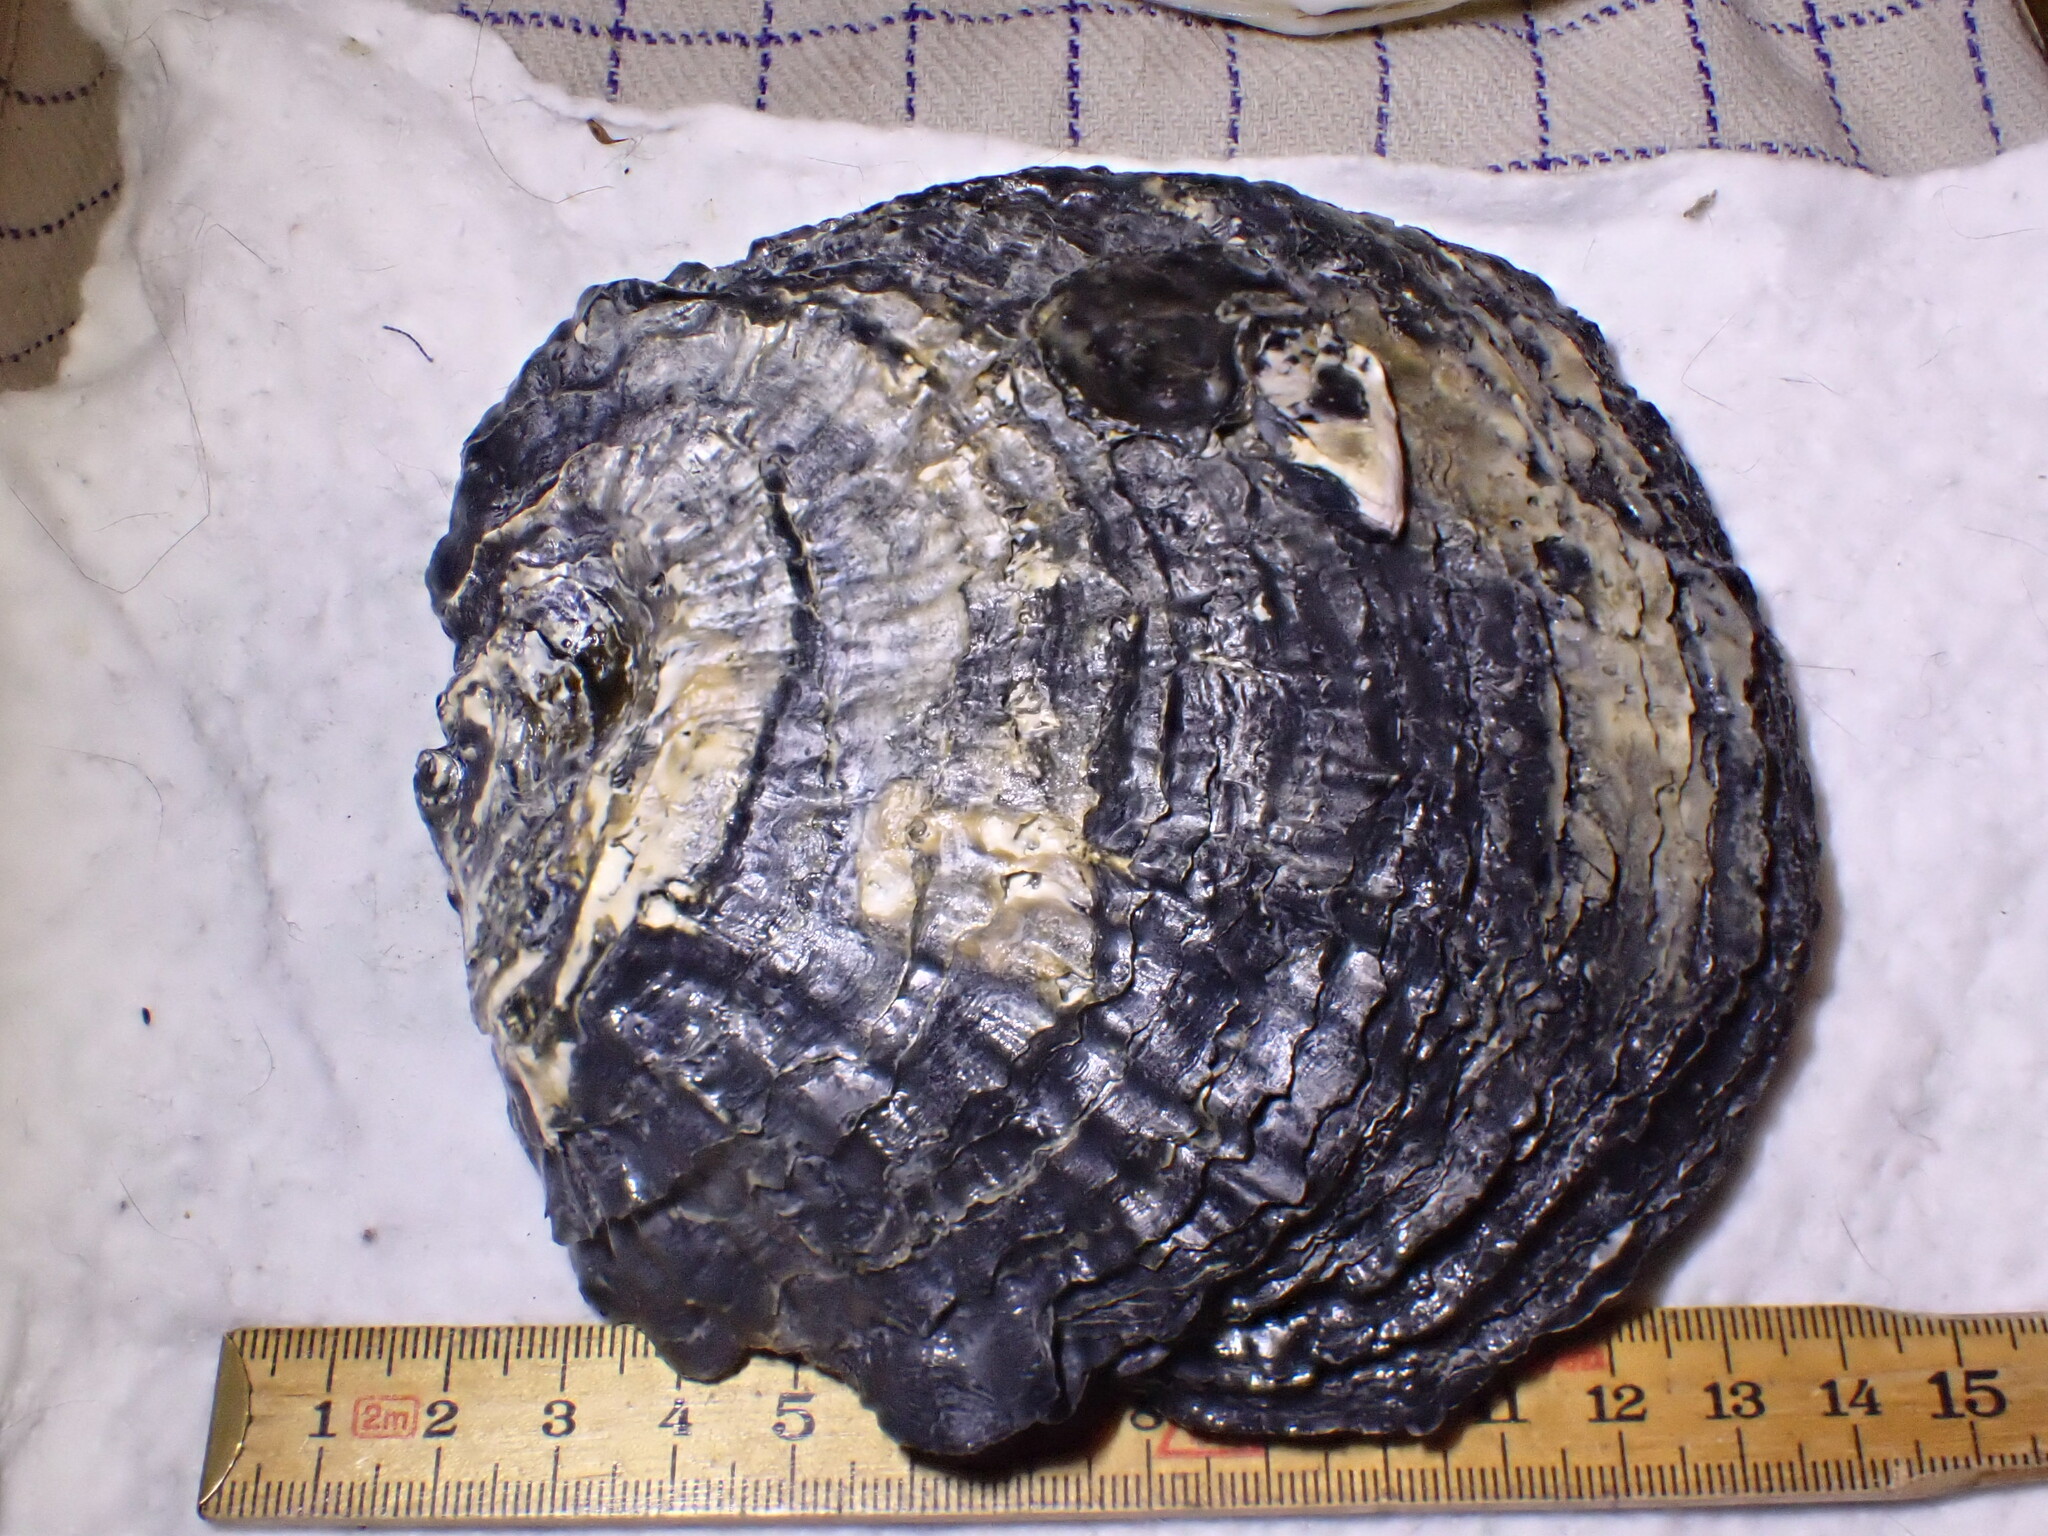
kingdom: Animalia
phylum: Mollusca
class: Bivalvia
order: Ostreida
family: Ostreidae
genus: Ostrea
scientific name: Ostrea edulis
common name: Flat oyster
